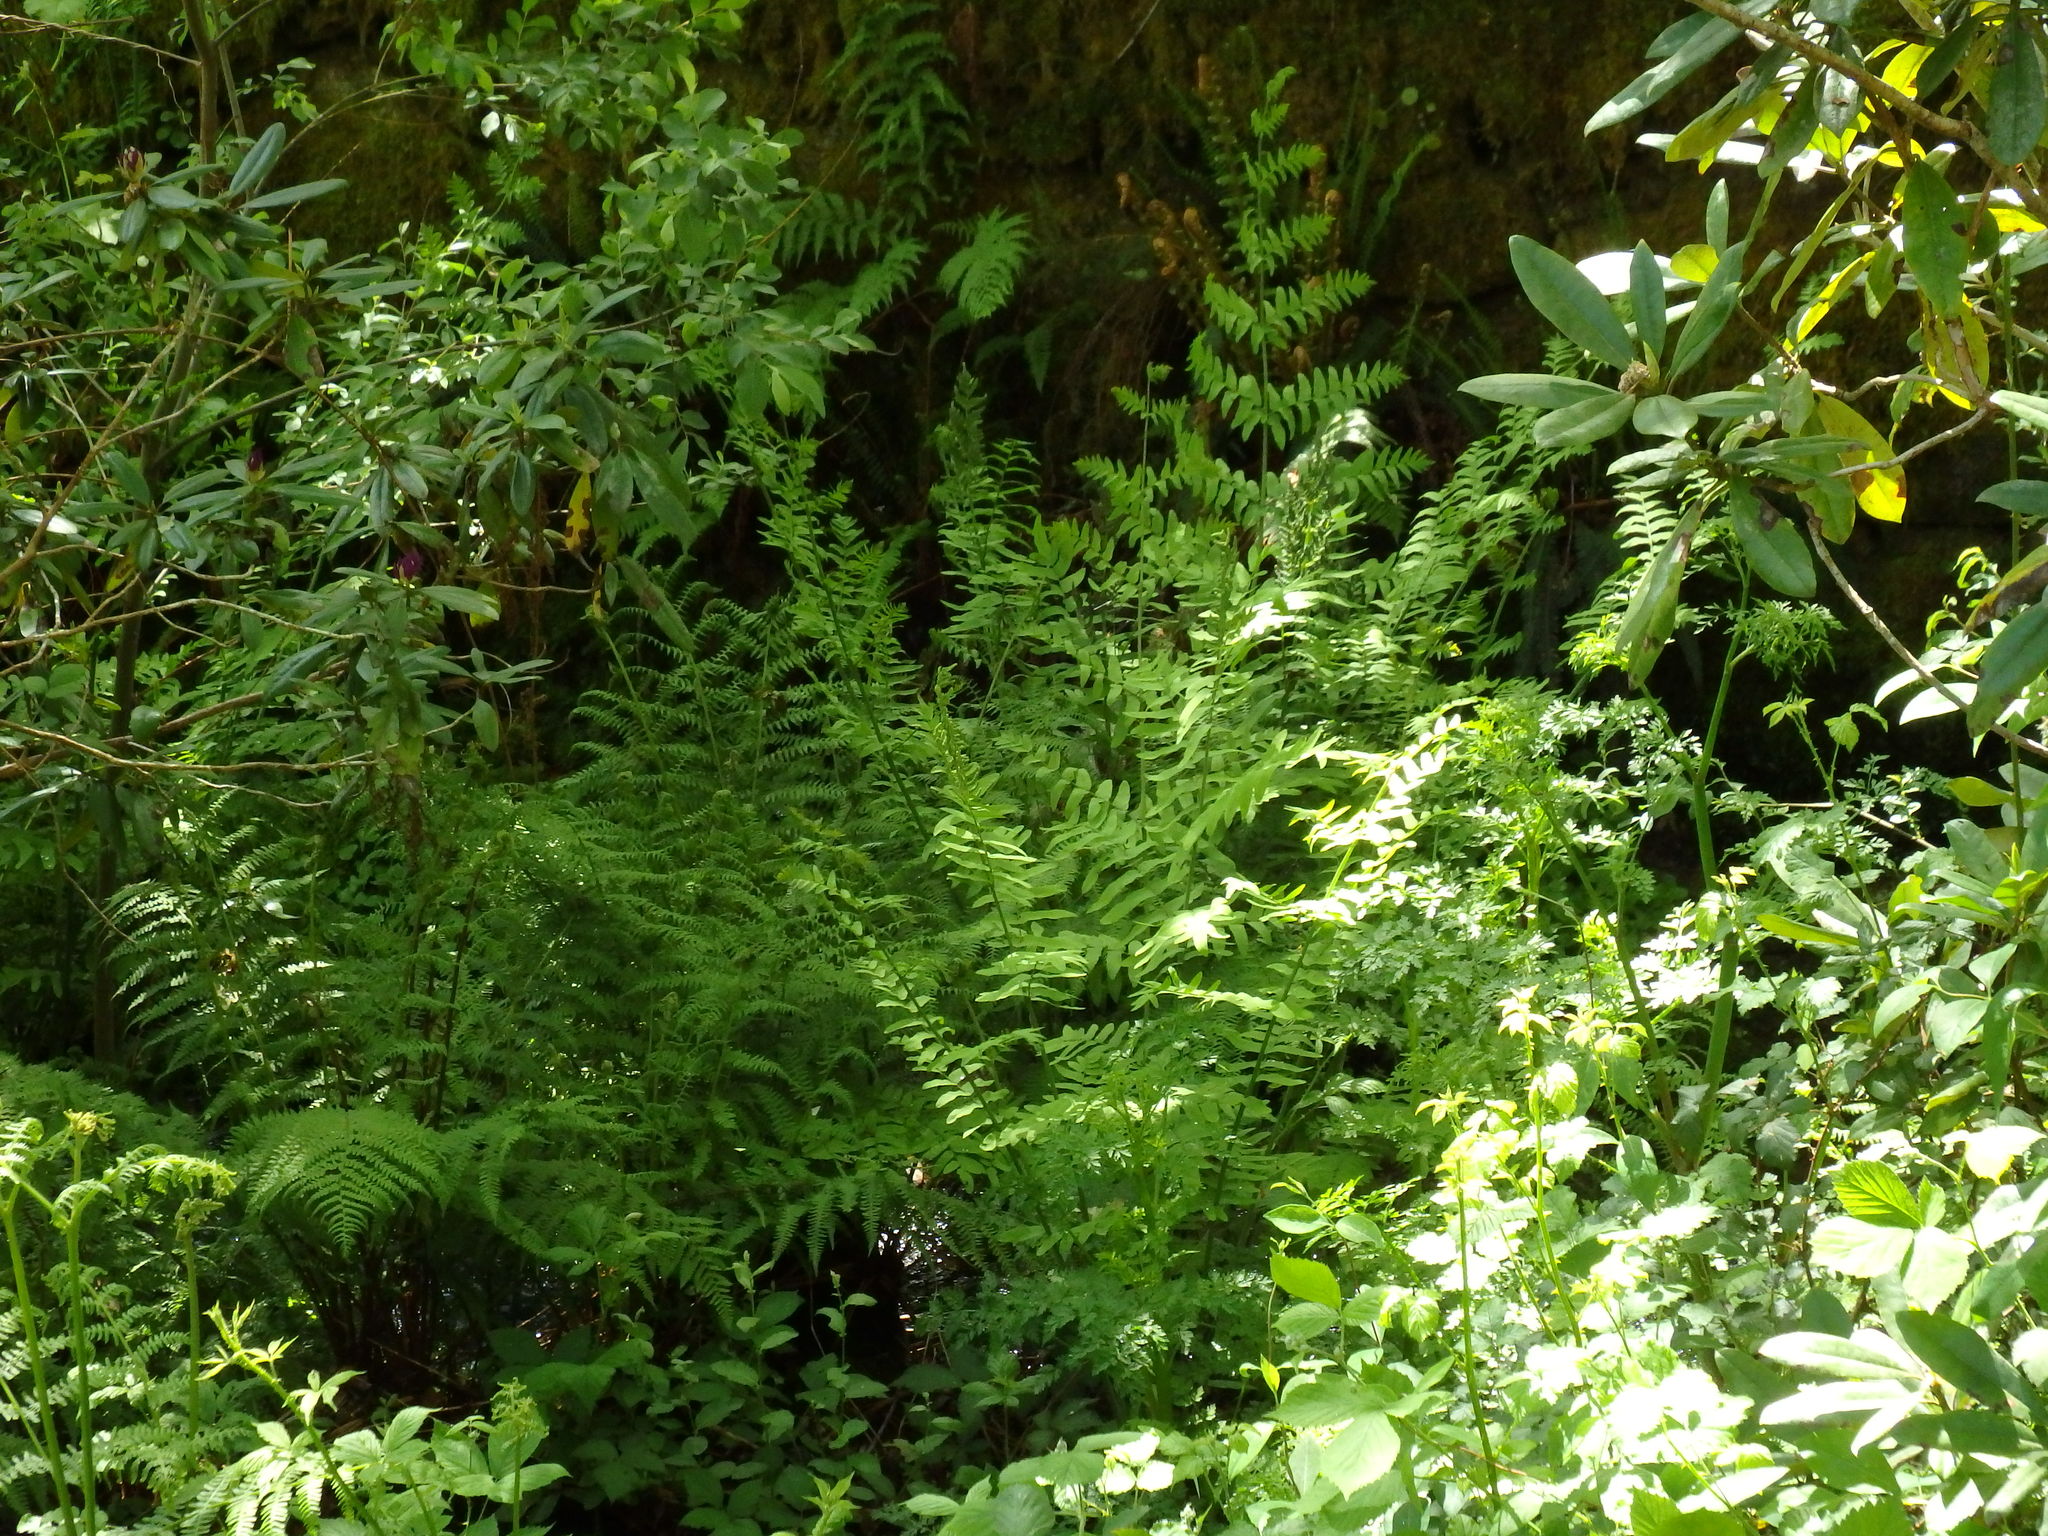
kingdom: Plantae
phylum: Tracheophyta
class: Polypodiopsida
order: Osmundales
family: Osmundaceae
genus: Osmunda
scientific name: Osmunda regalis
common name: Royal fern
